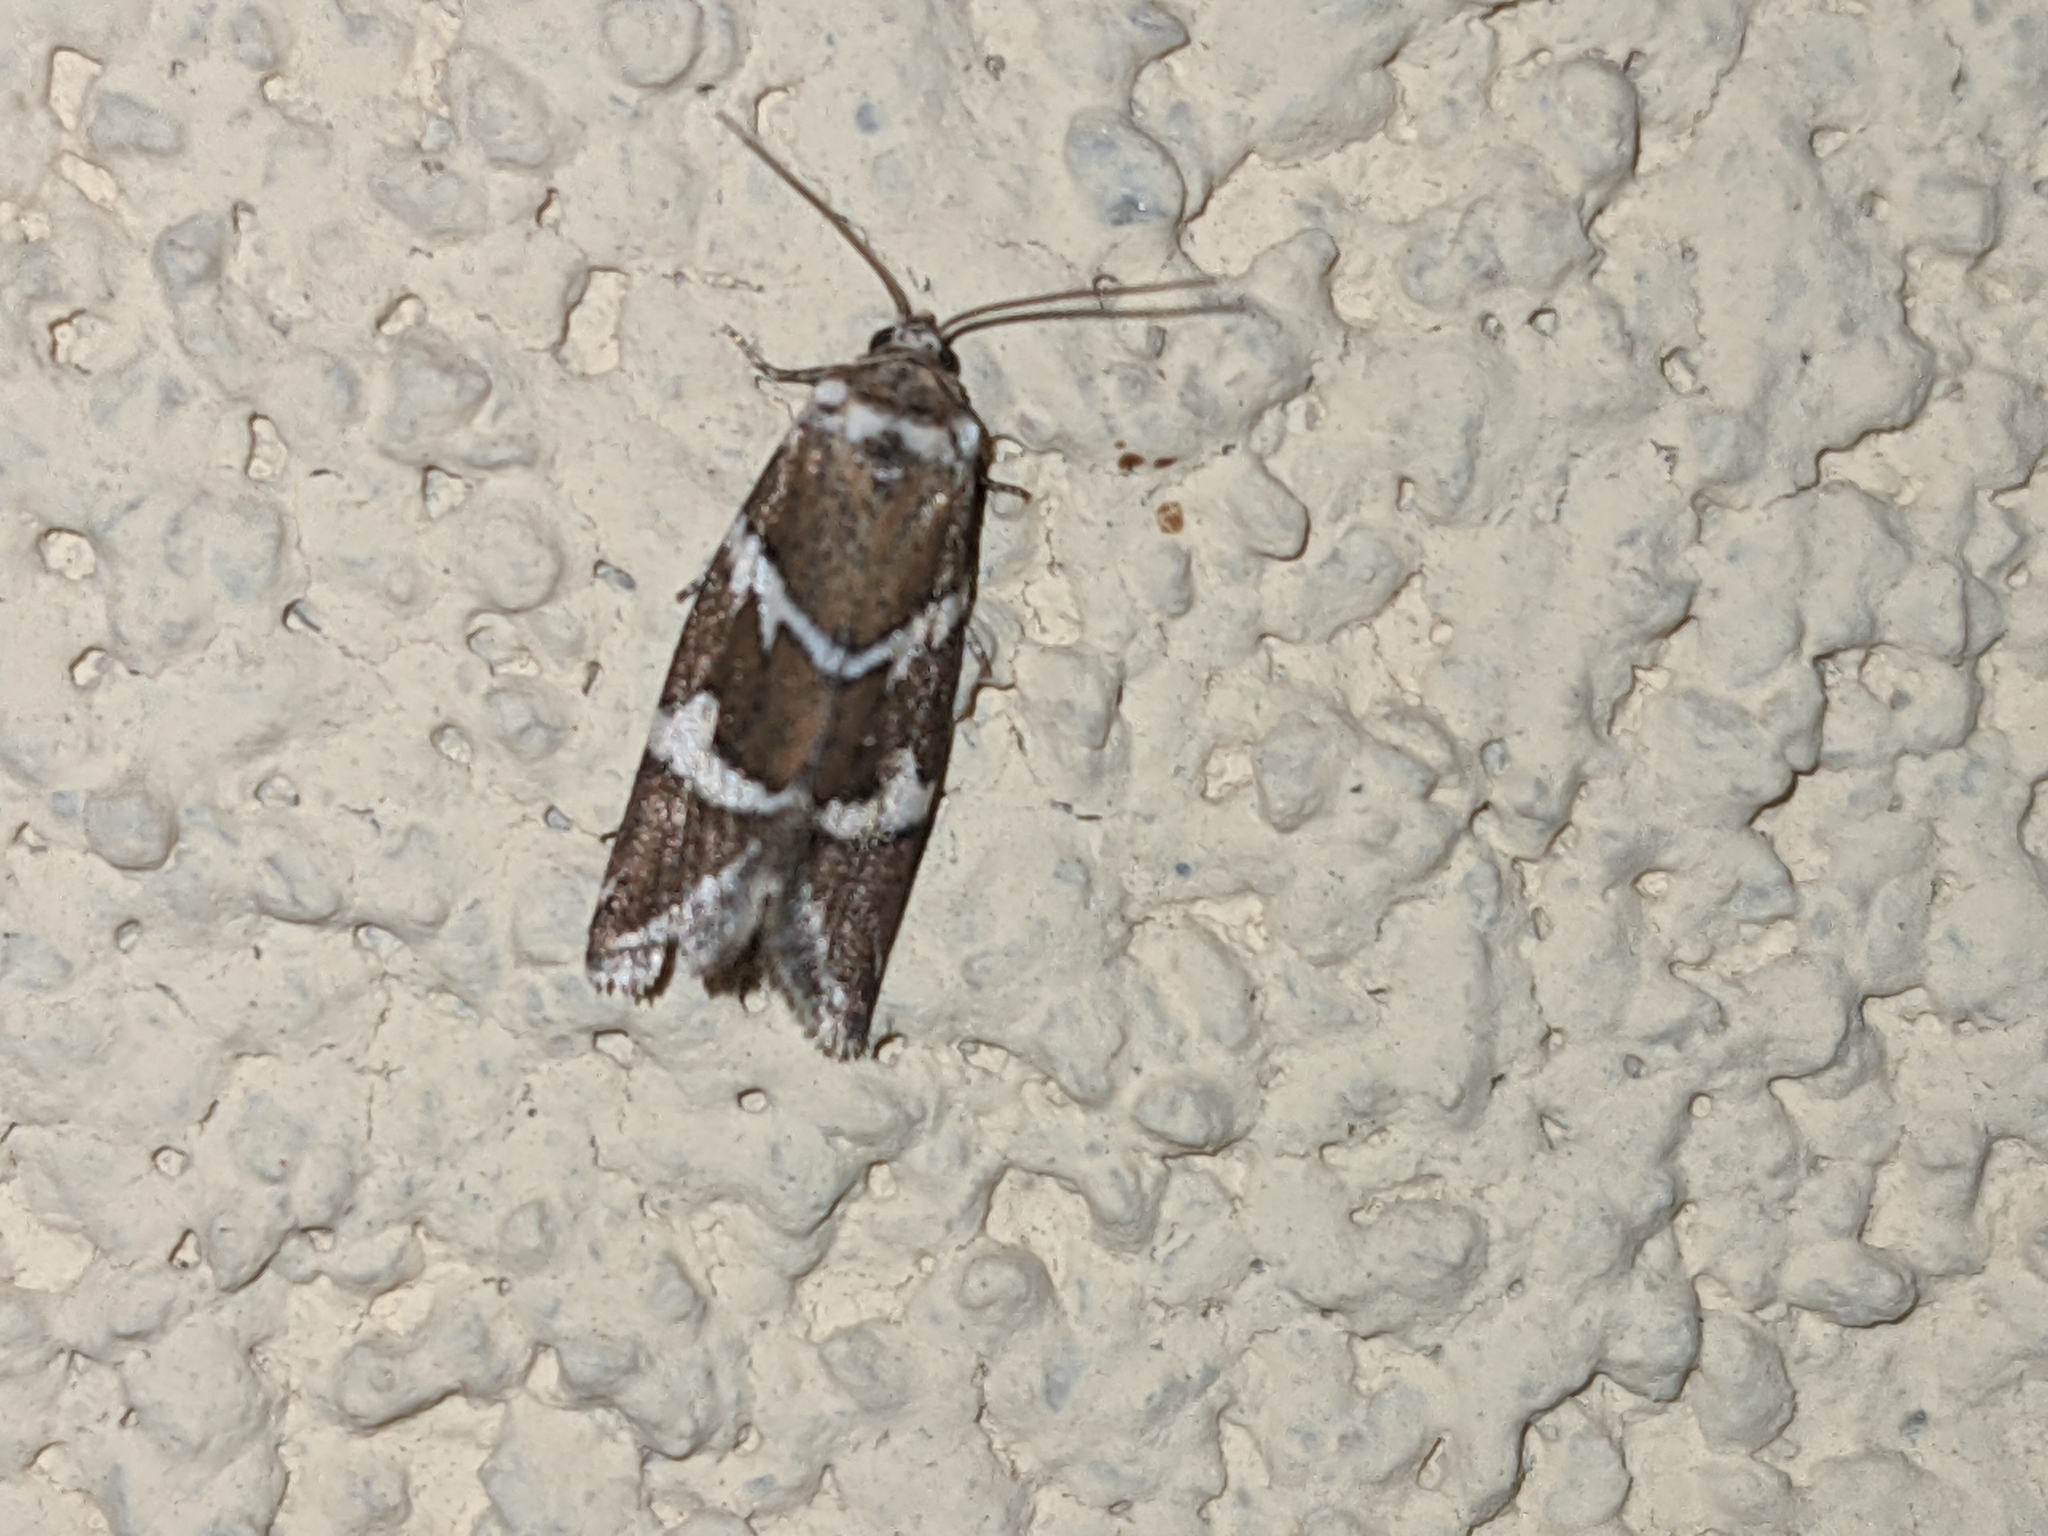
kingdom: Animalia
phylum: Arthropoda
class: Insecta
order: Lepidoptera
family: Noctuidae
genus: Deltote
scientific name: Deltote bankiana
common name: Silver barred
